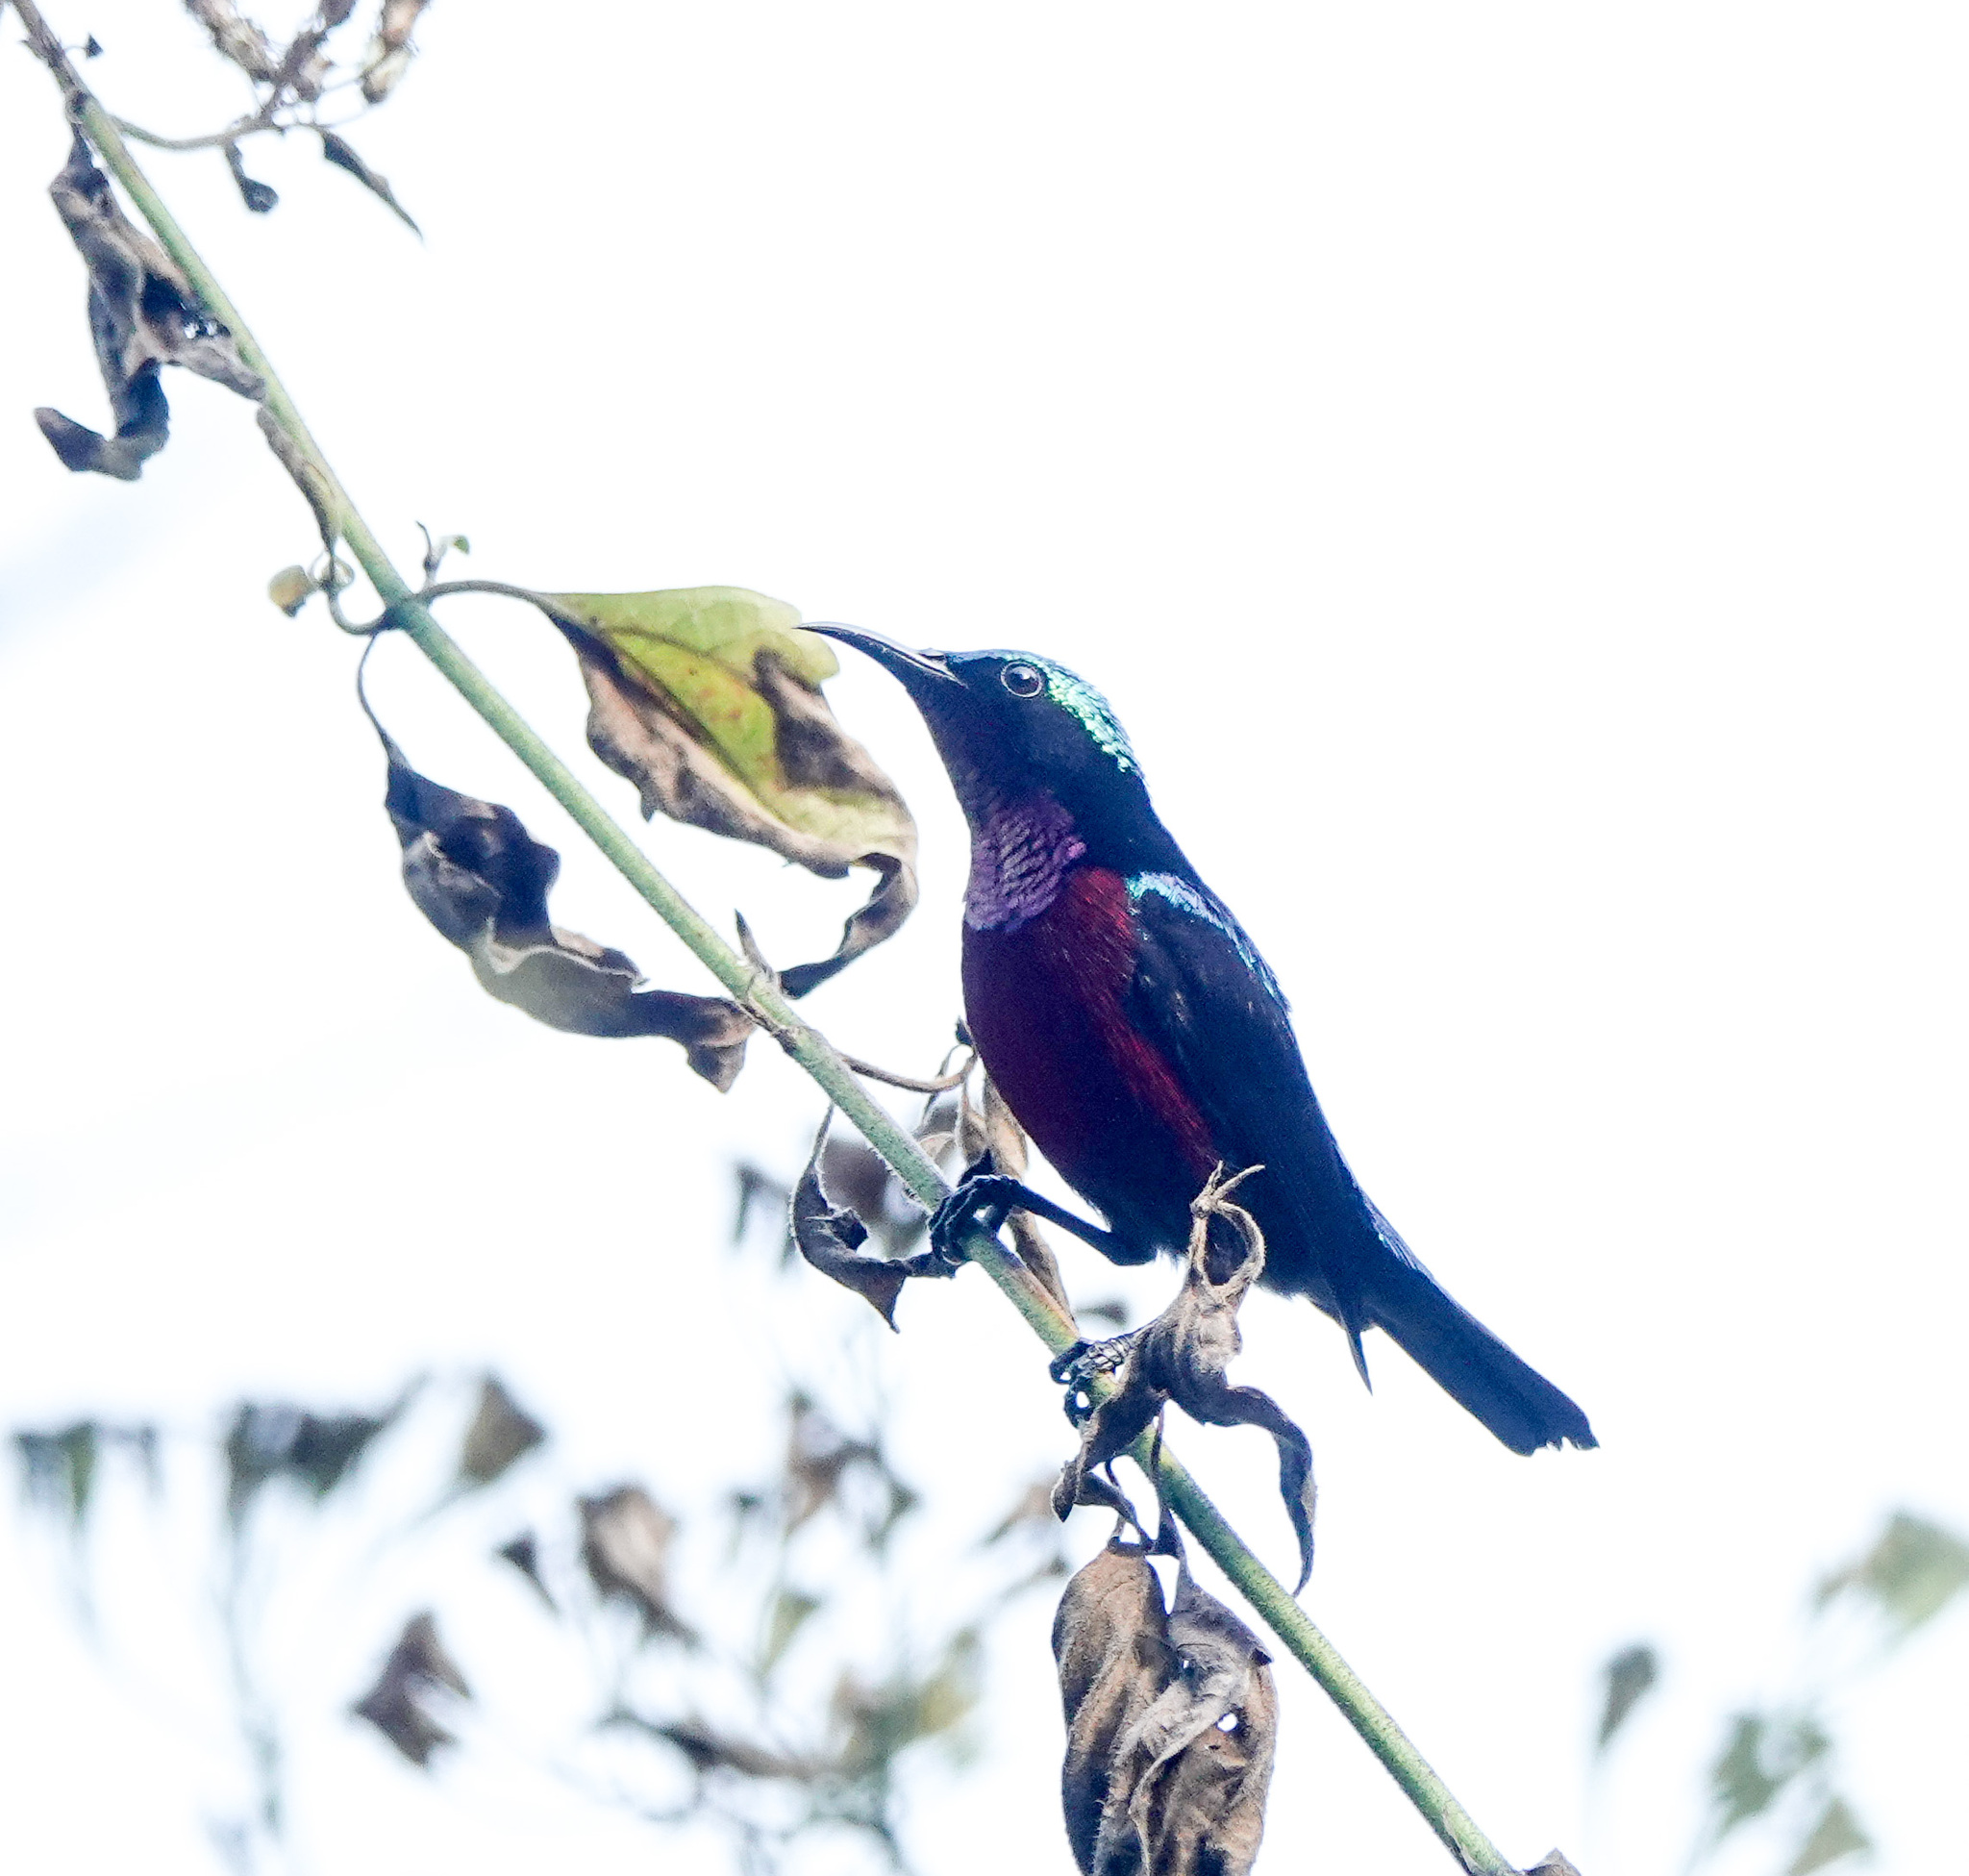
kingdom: Animalia
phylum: Chordata
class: Aves
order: Passeriformes
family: Nectariniidae
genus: Leptocoma
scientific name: Leptocoma brasiliana
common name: Van hasselt's sunbird
